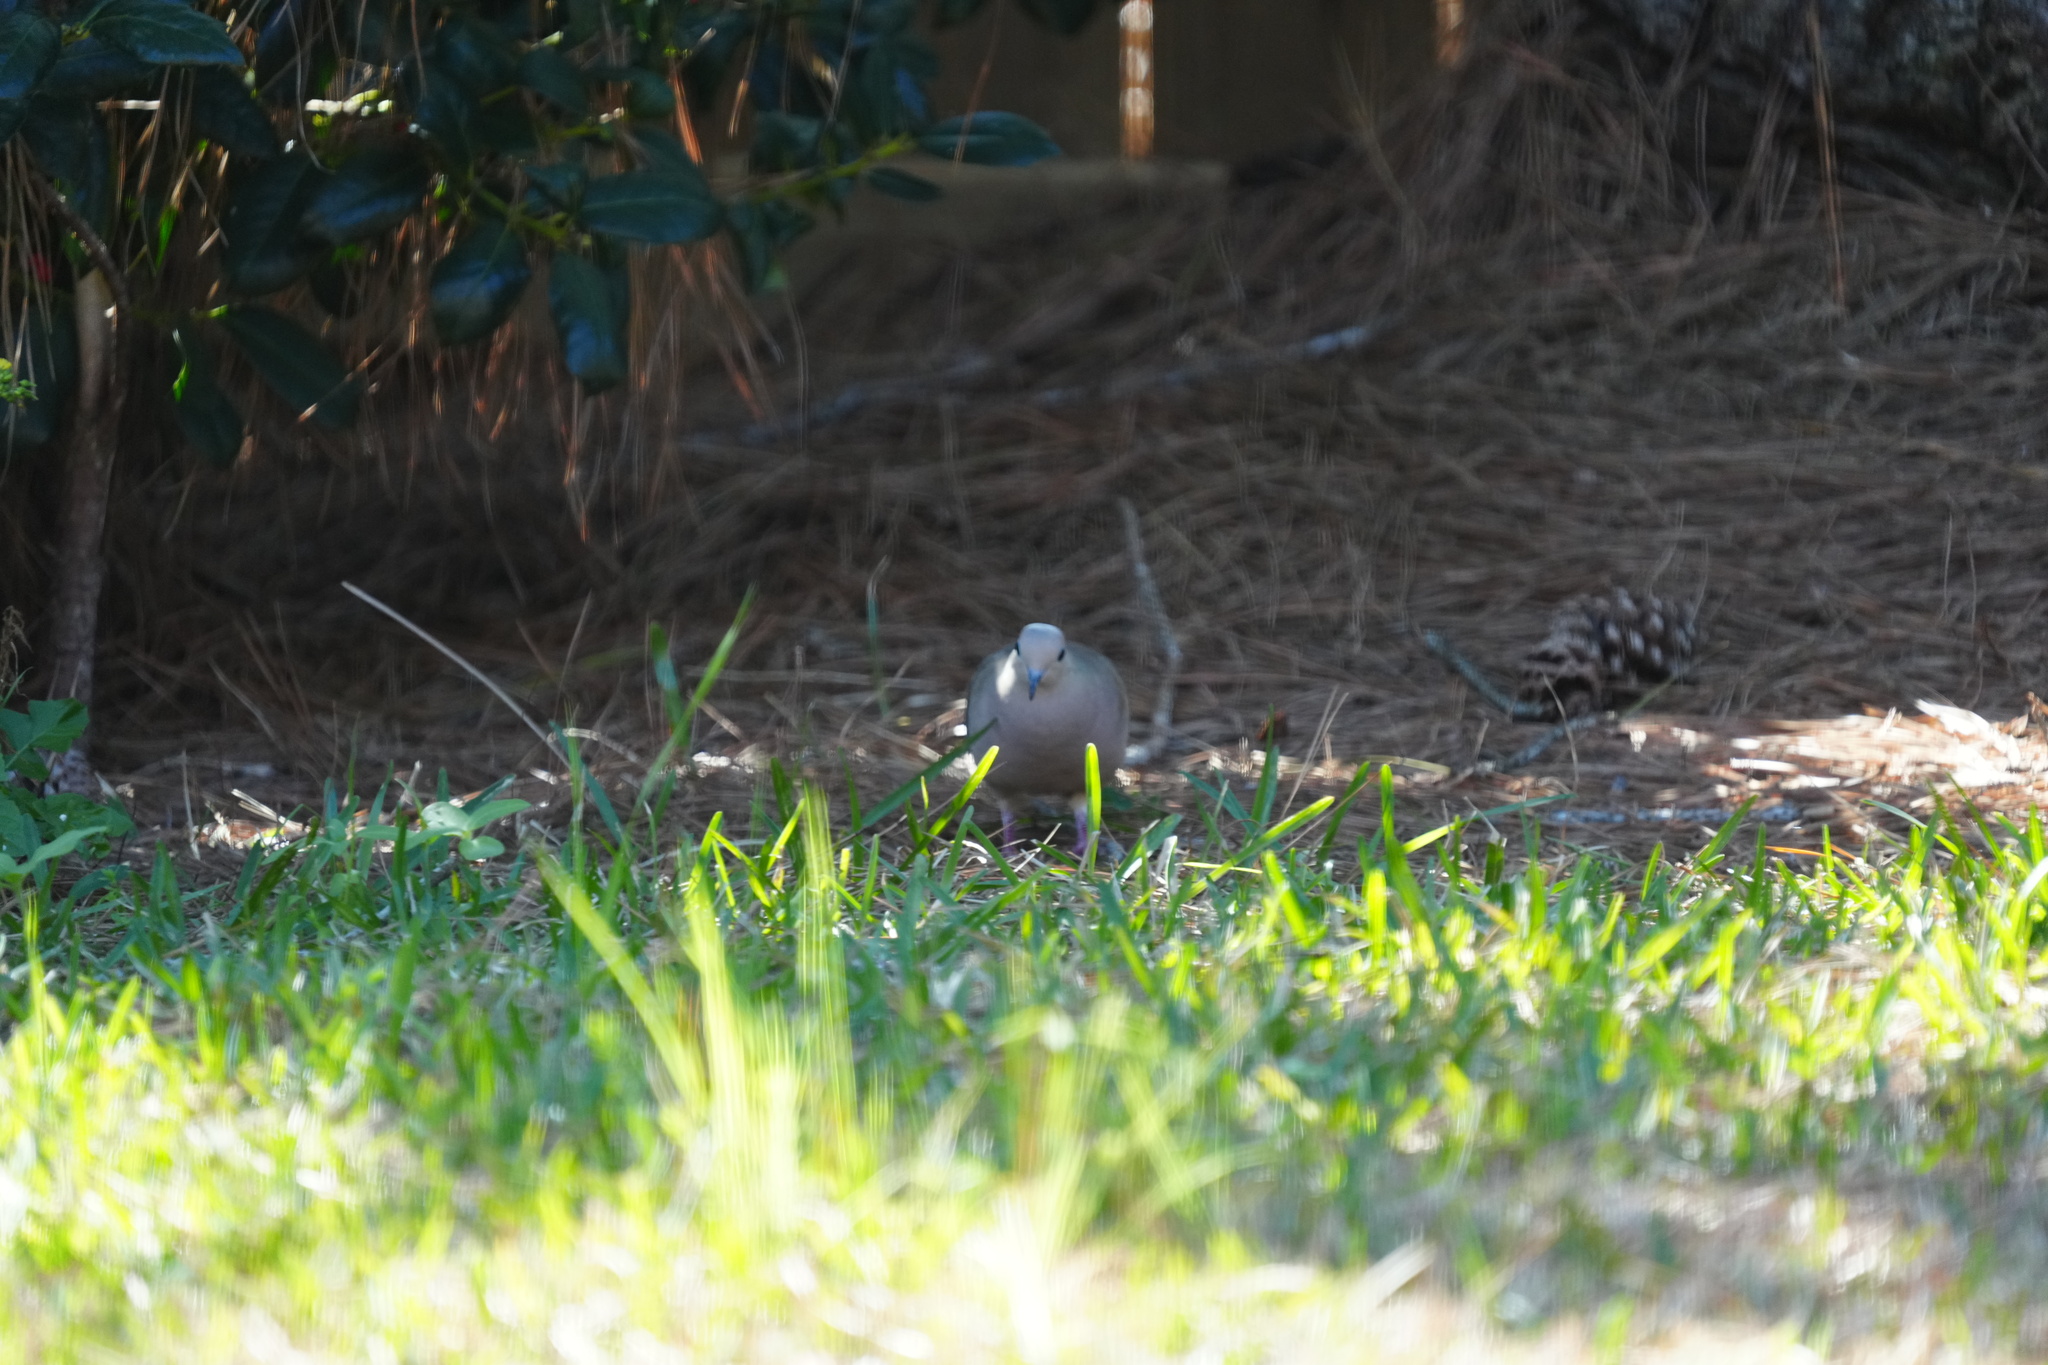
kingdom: Animalia
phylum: Chordata
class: Aves
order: Columbiformes
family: Columbidae
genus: Zenaida
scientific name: Zenaida macroura
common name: Mourning dove
